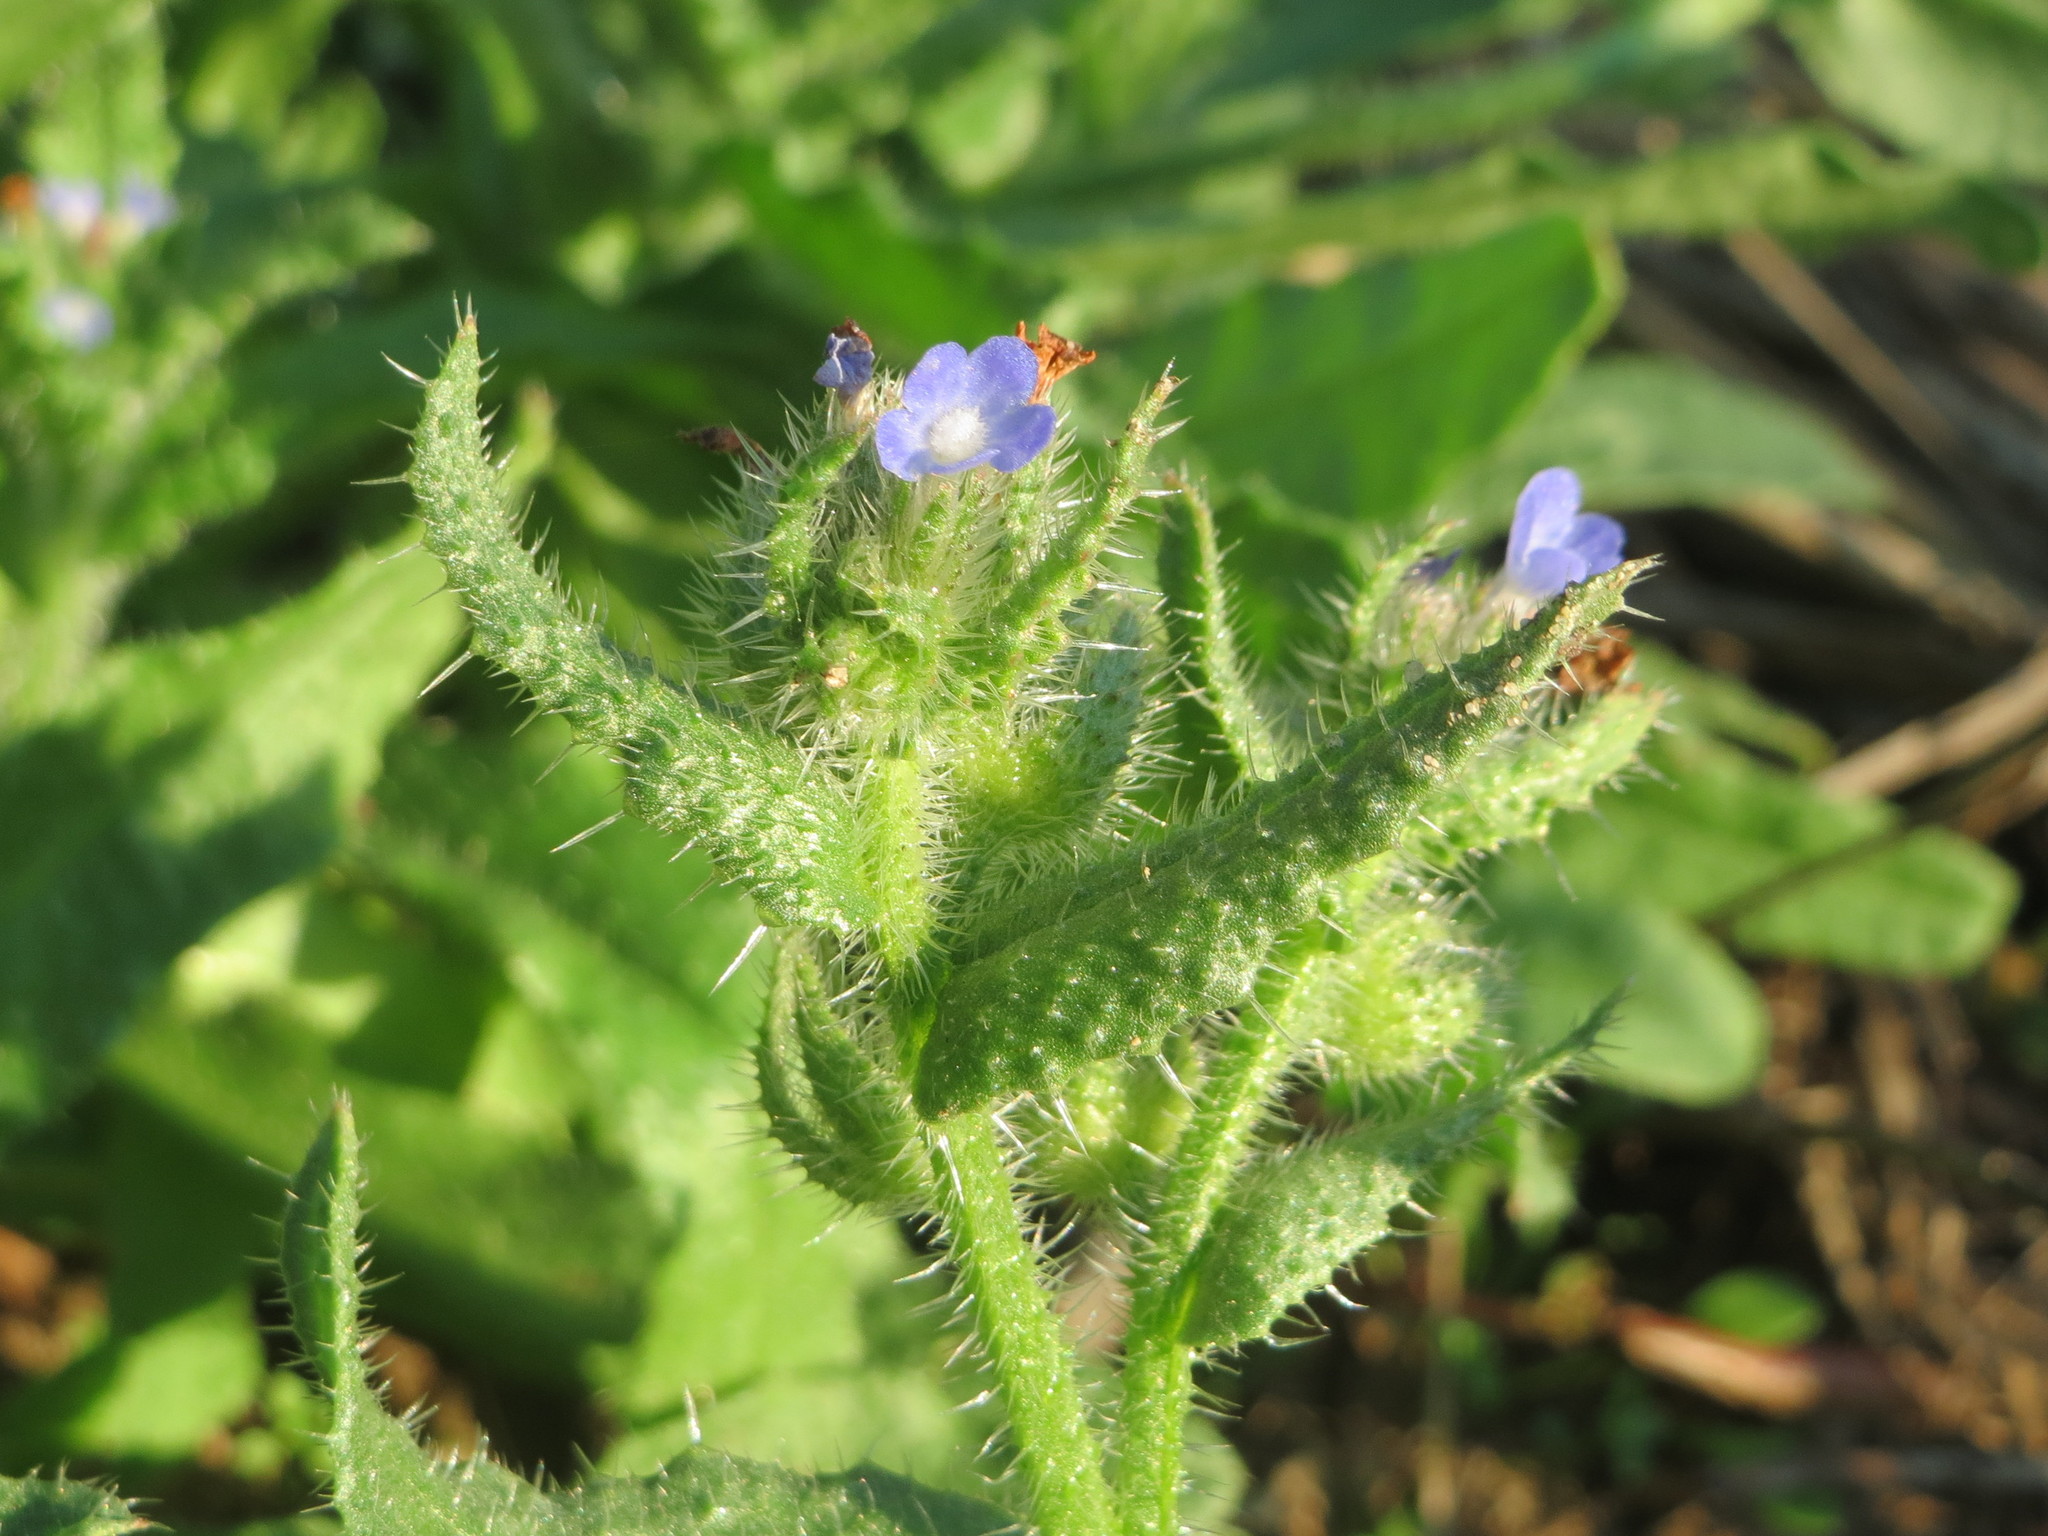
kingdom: Plantae
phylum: Tracheophyta
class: Magnoliopsida
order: Boraginales
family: Boraginaceae
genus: Lycopsis
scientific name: Lycopsis arvensis
